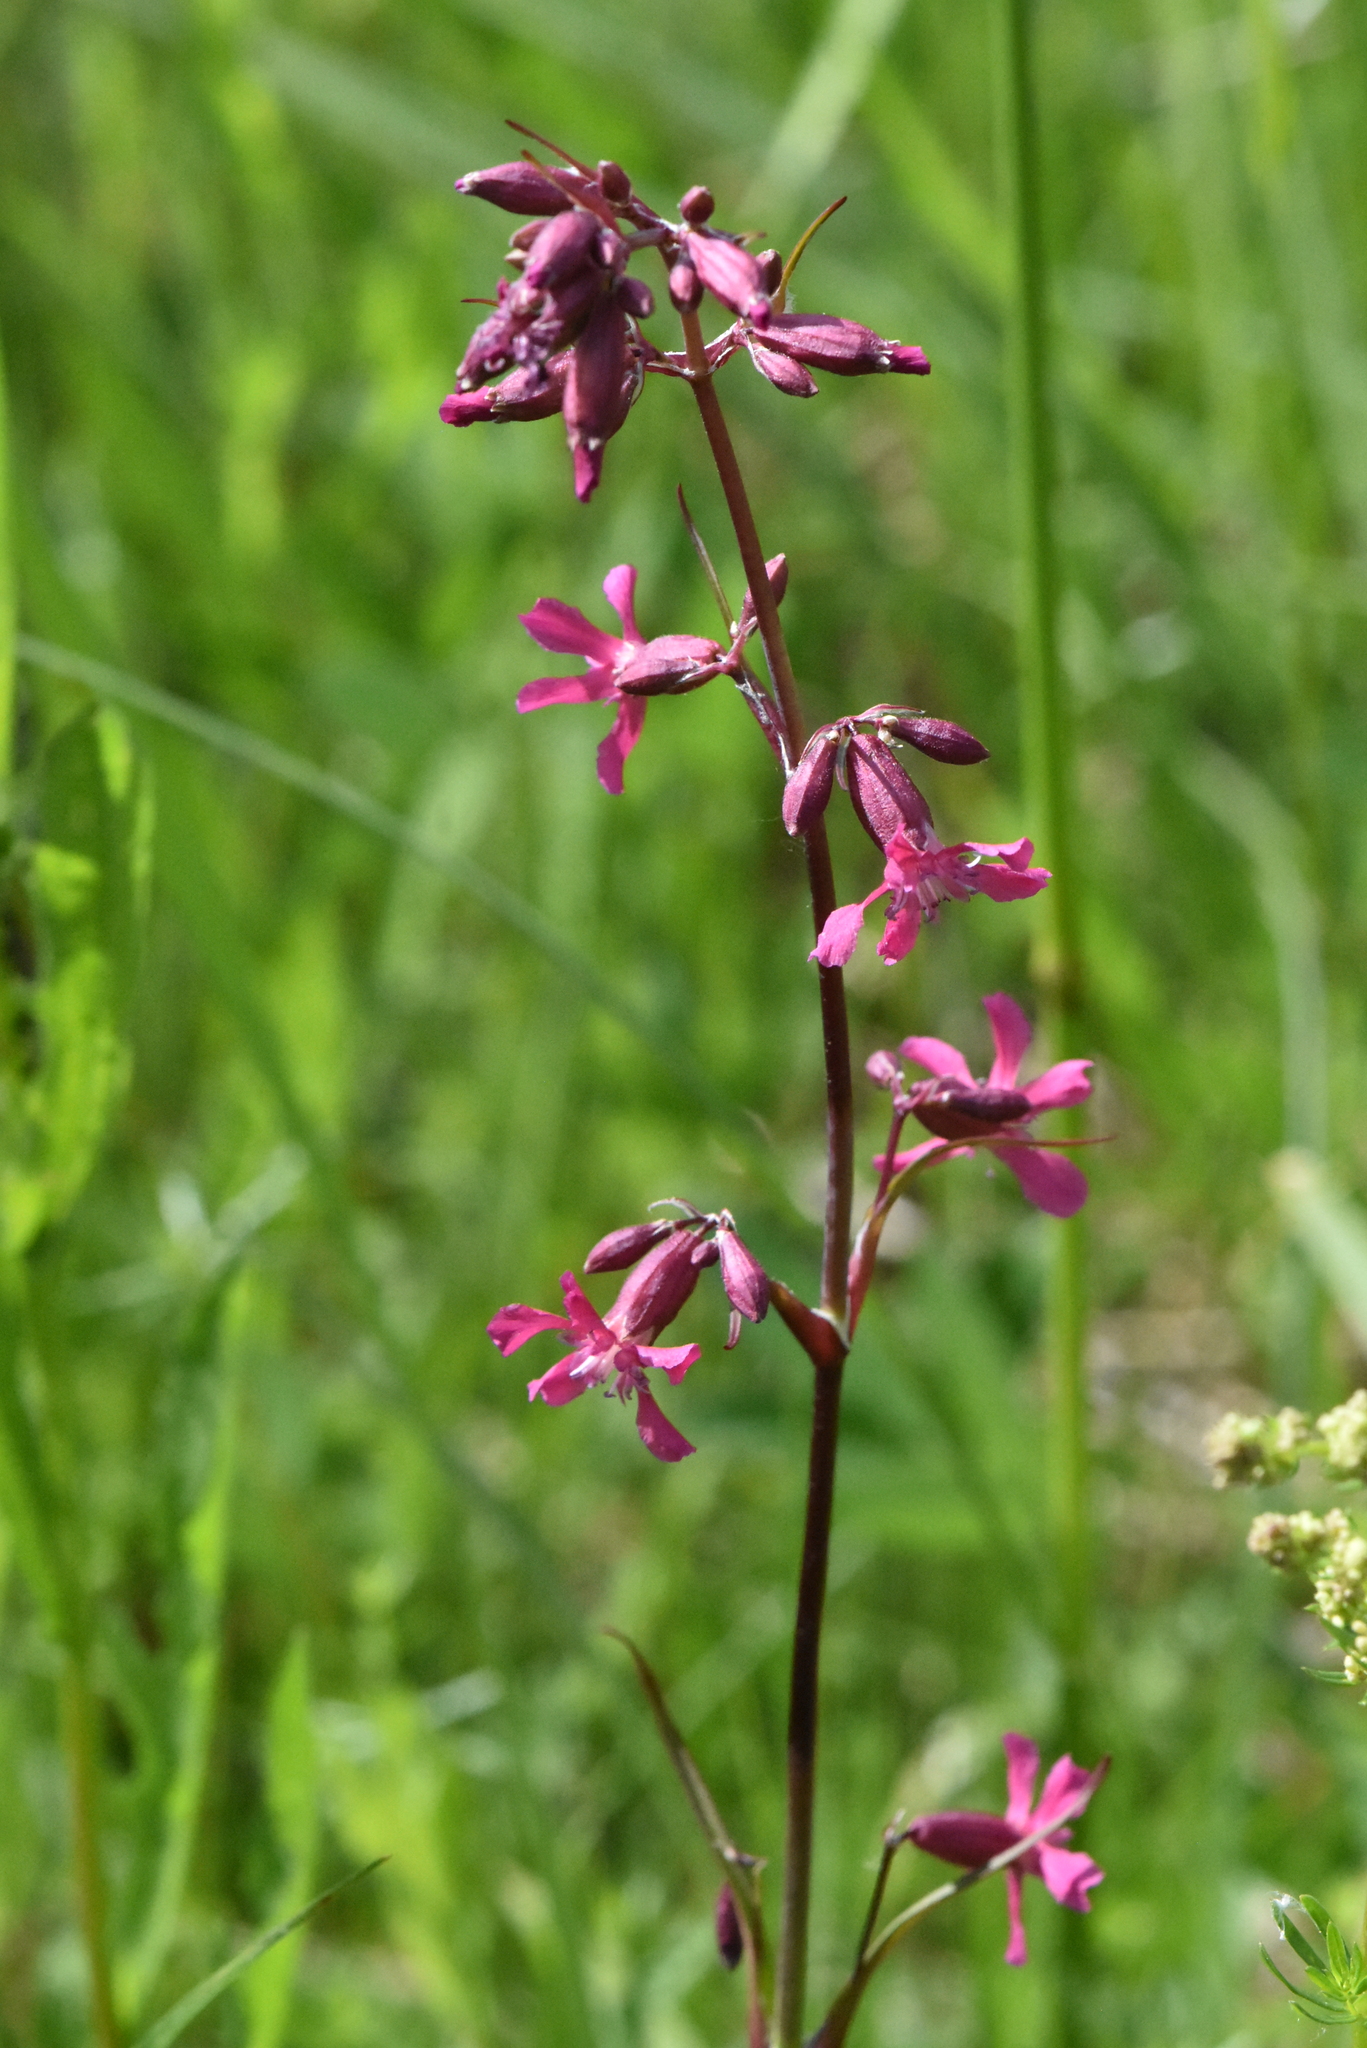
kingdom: Plantae
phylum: Tracheophyta
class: Magnoliopsida
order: Caryophyllales
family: Caryophyllaceae
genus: Viscaria
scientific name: Viscaria vulgaris
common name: Clammy campion
